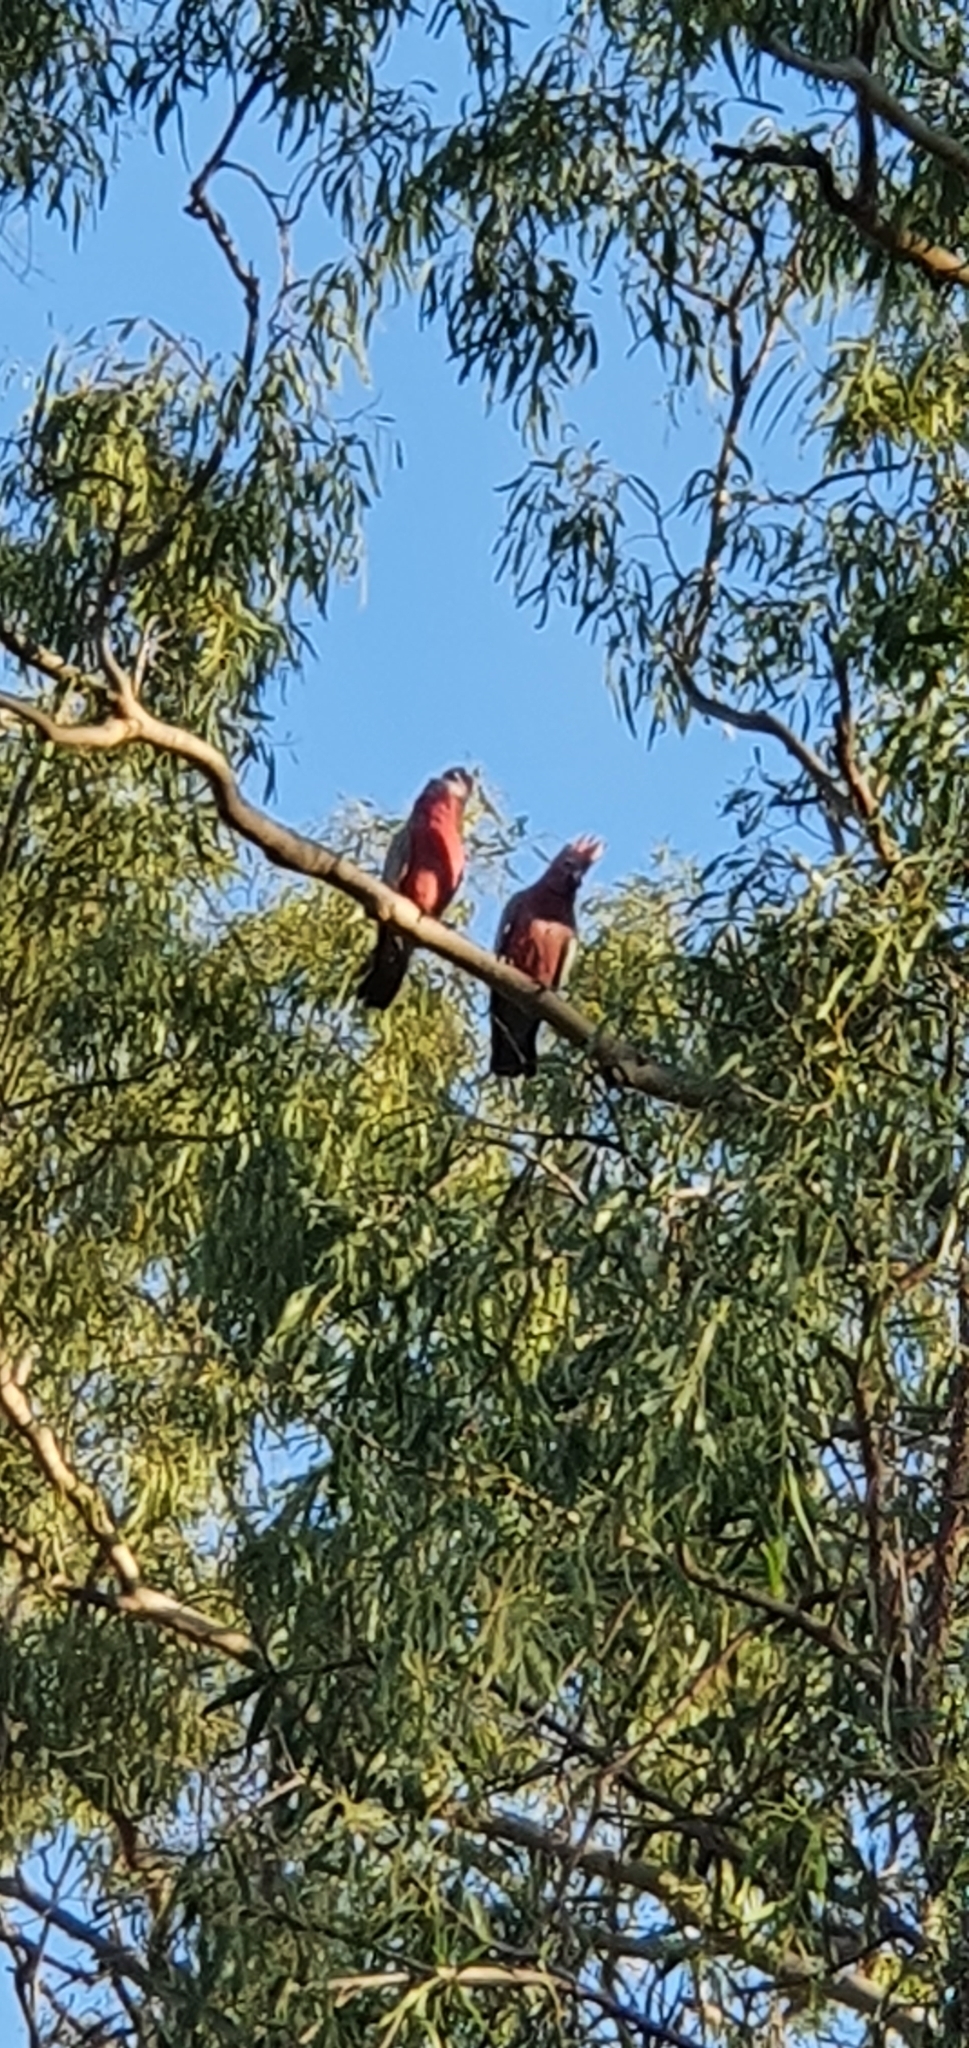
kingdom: Animalia
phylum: Chordata
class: Aves
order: Psittaciformes
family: Psittacidae
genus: Eolophus
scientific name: Eolophus roseicapilla
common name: Galah
